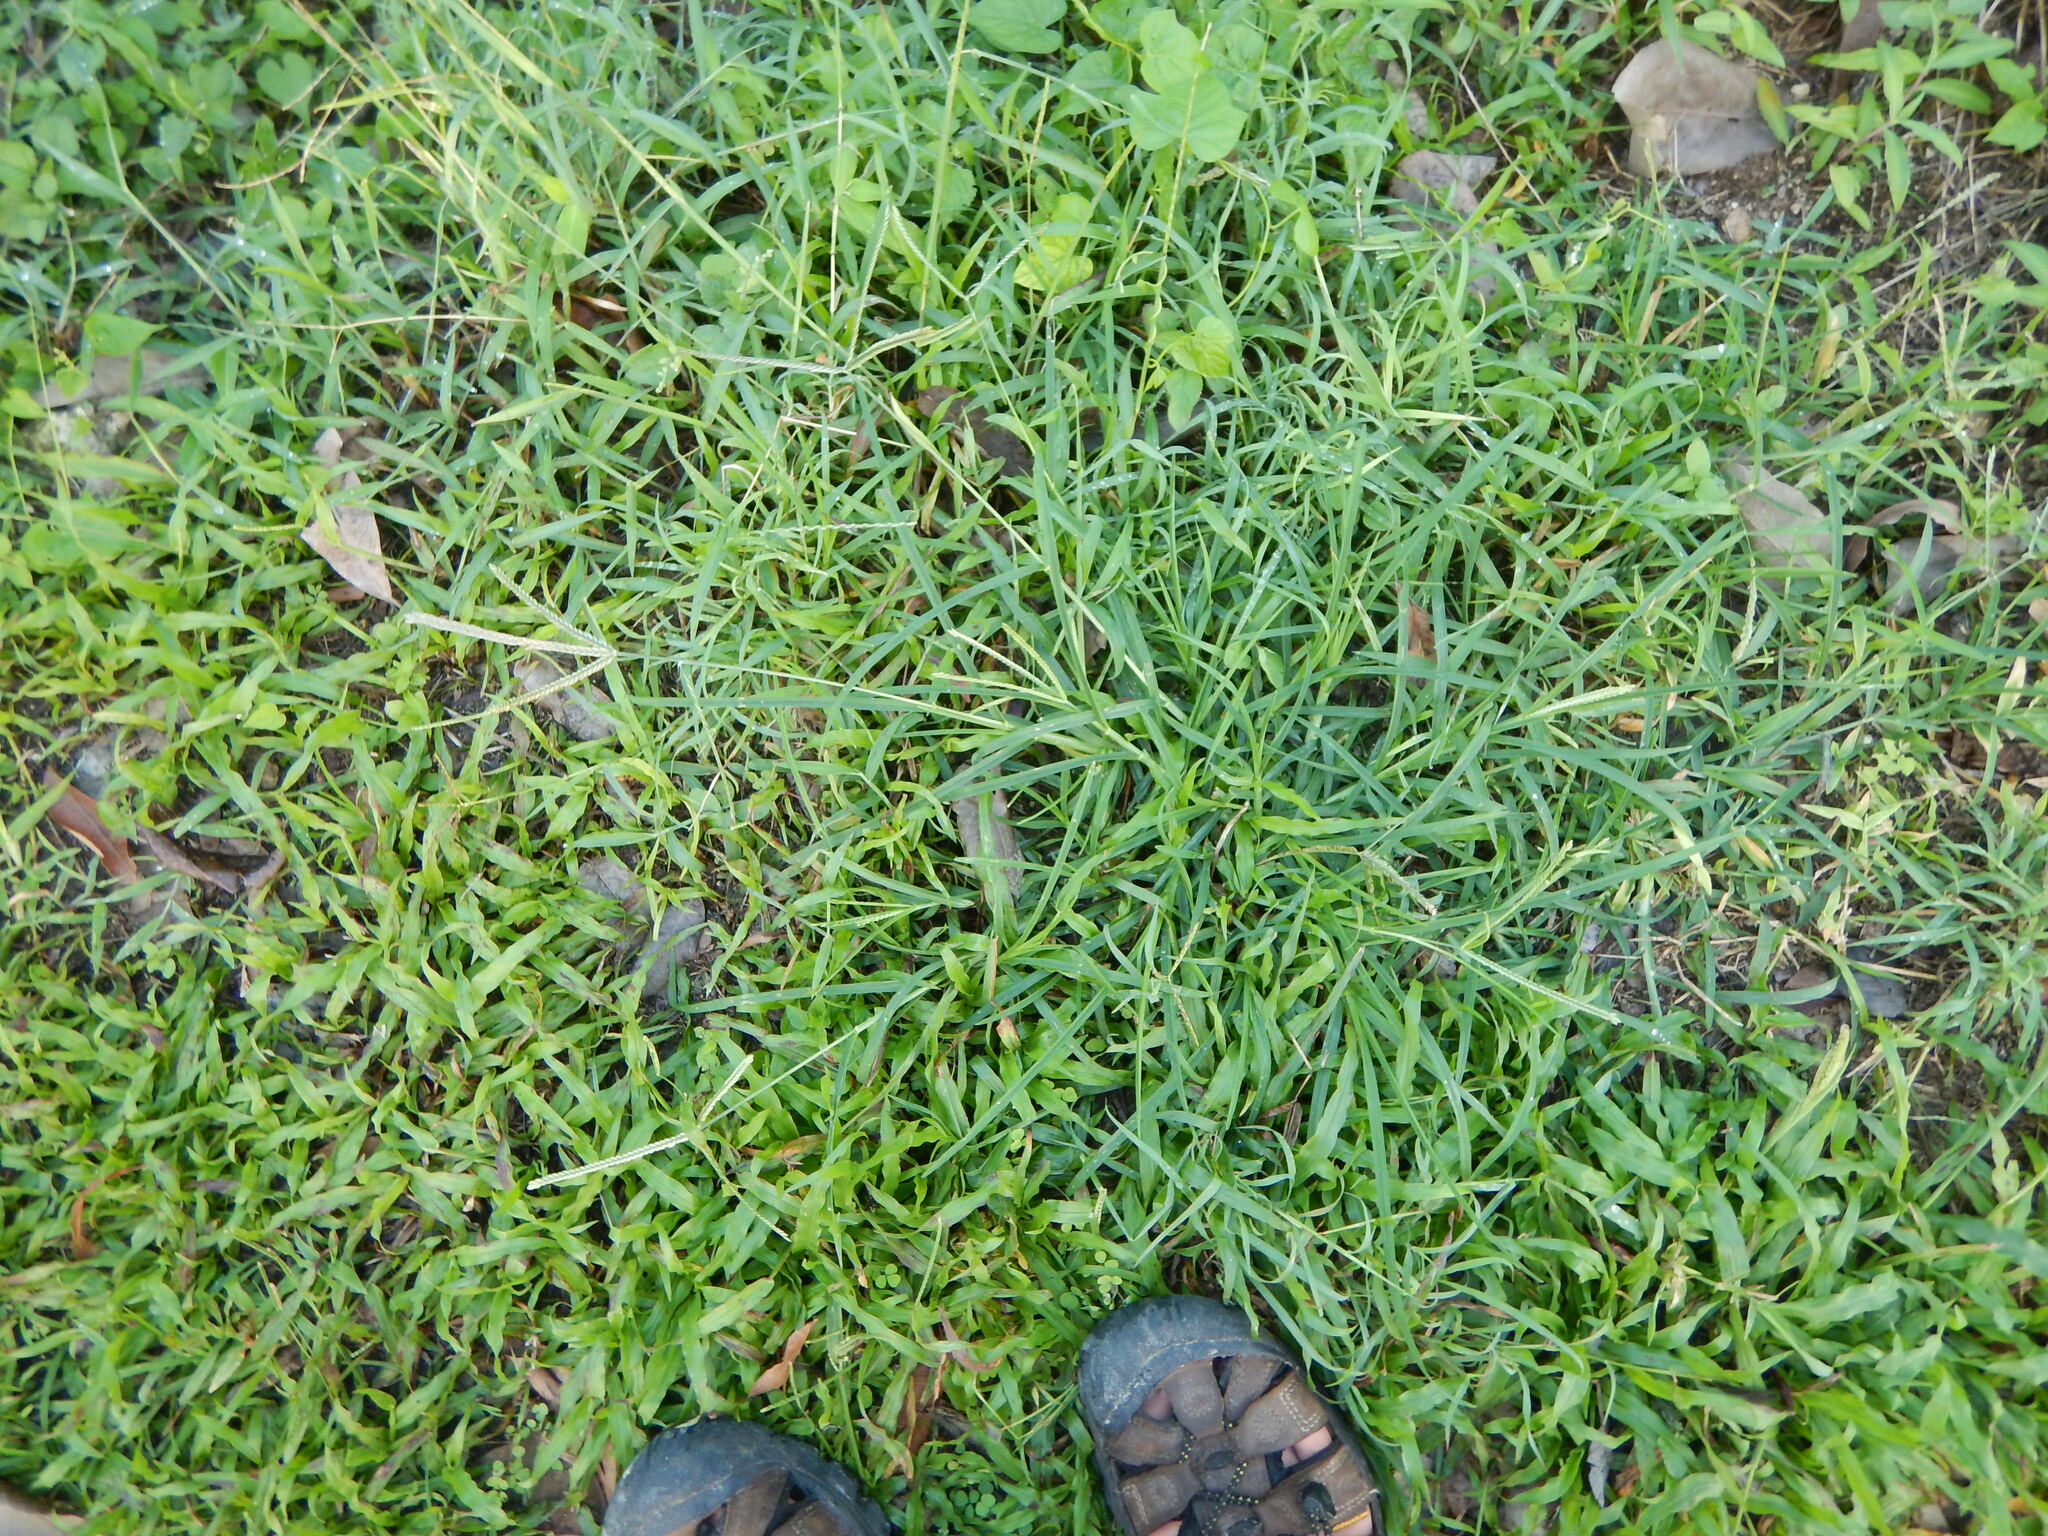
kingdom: Plantae
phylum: Tracheophyta
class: Liliopsida
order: Poales
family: Poaceae
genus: Eleusine
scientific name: Eleusine indica
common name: Yard-grass
